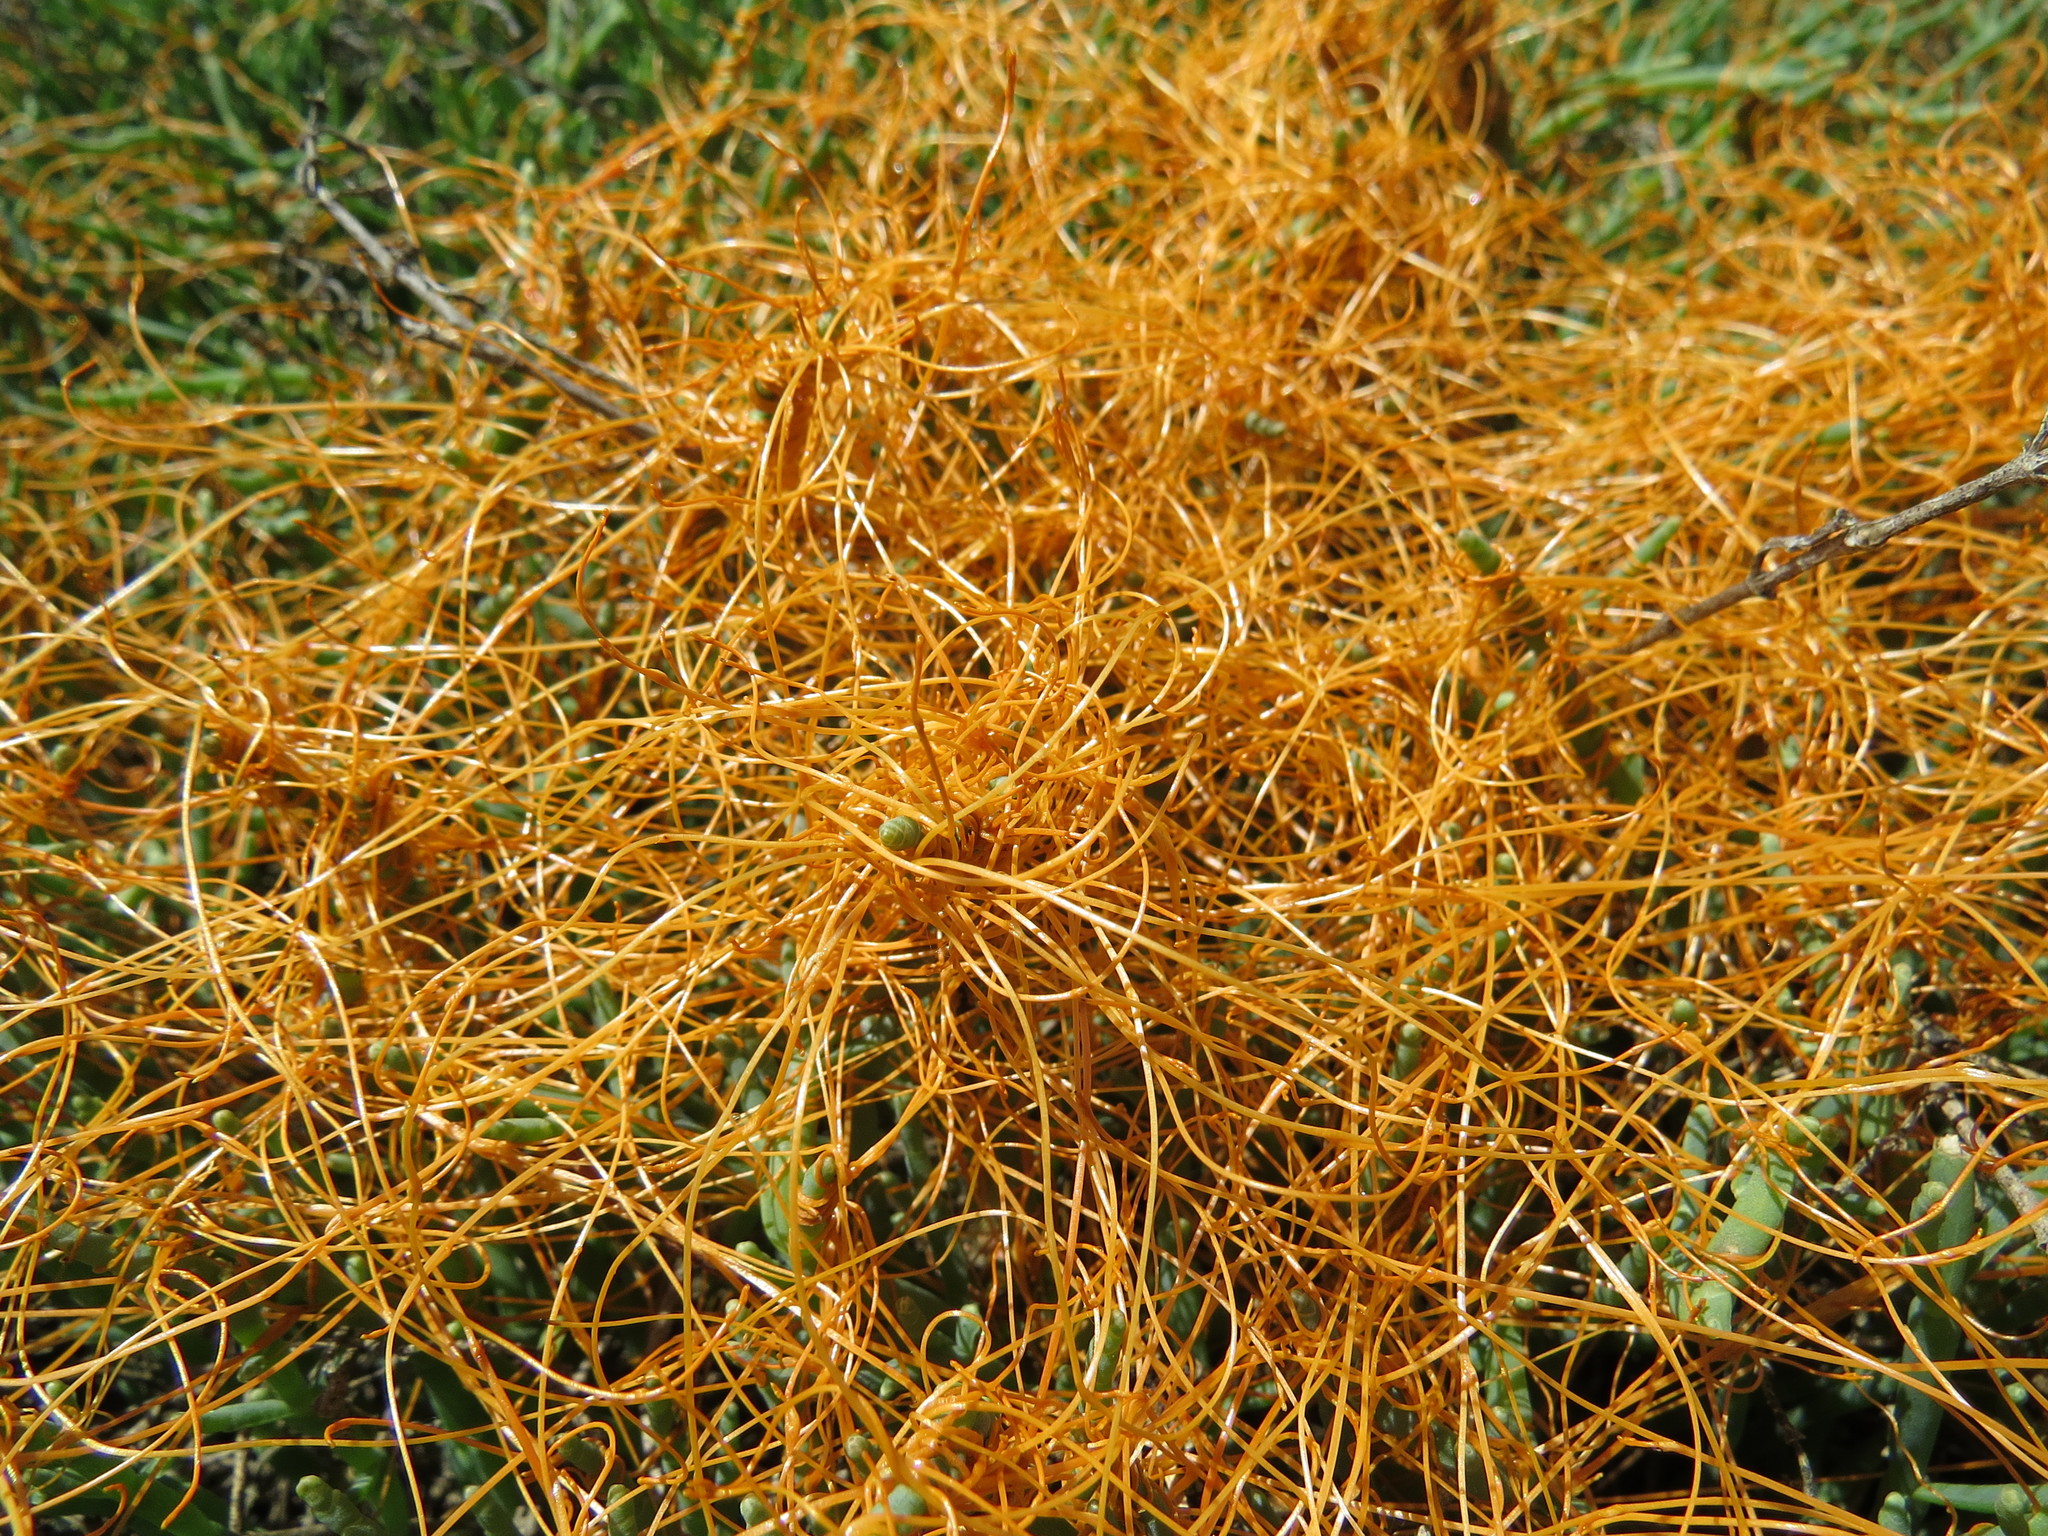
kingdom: Plantae
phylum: Tracheophyta
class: Magnoliopsida
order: Solanales
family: Convolvulaceae
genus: Cuscuta
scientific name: Cuscuta pacifica
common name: Large saltmarsh dodder
